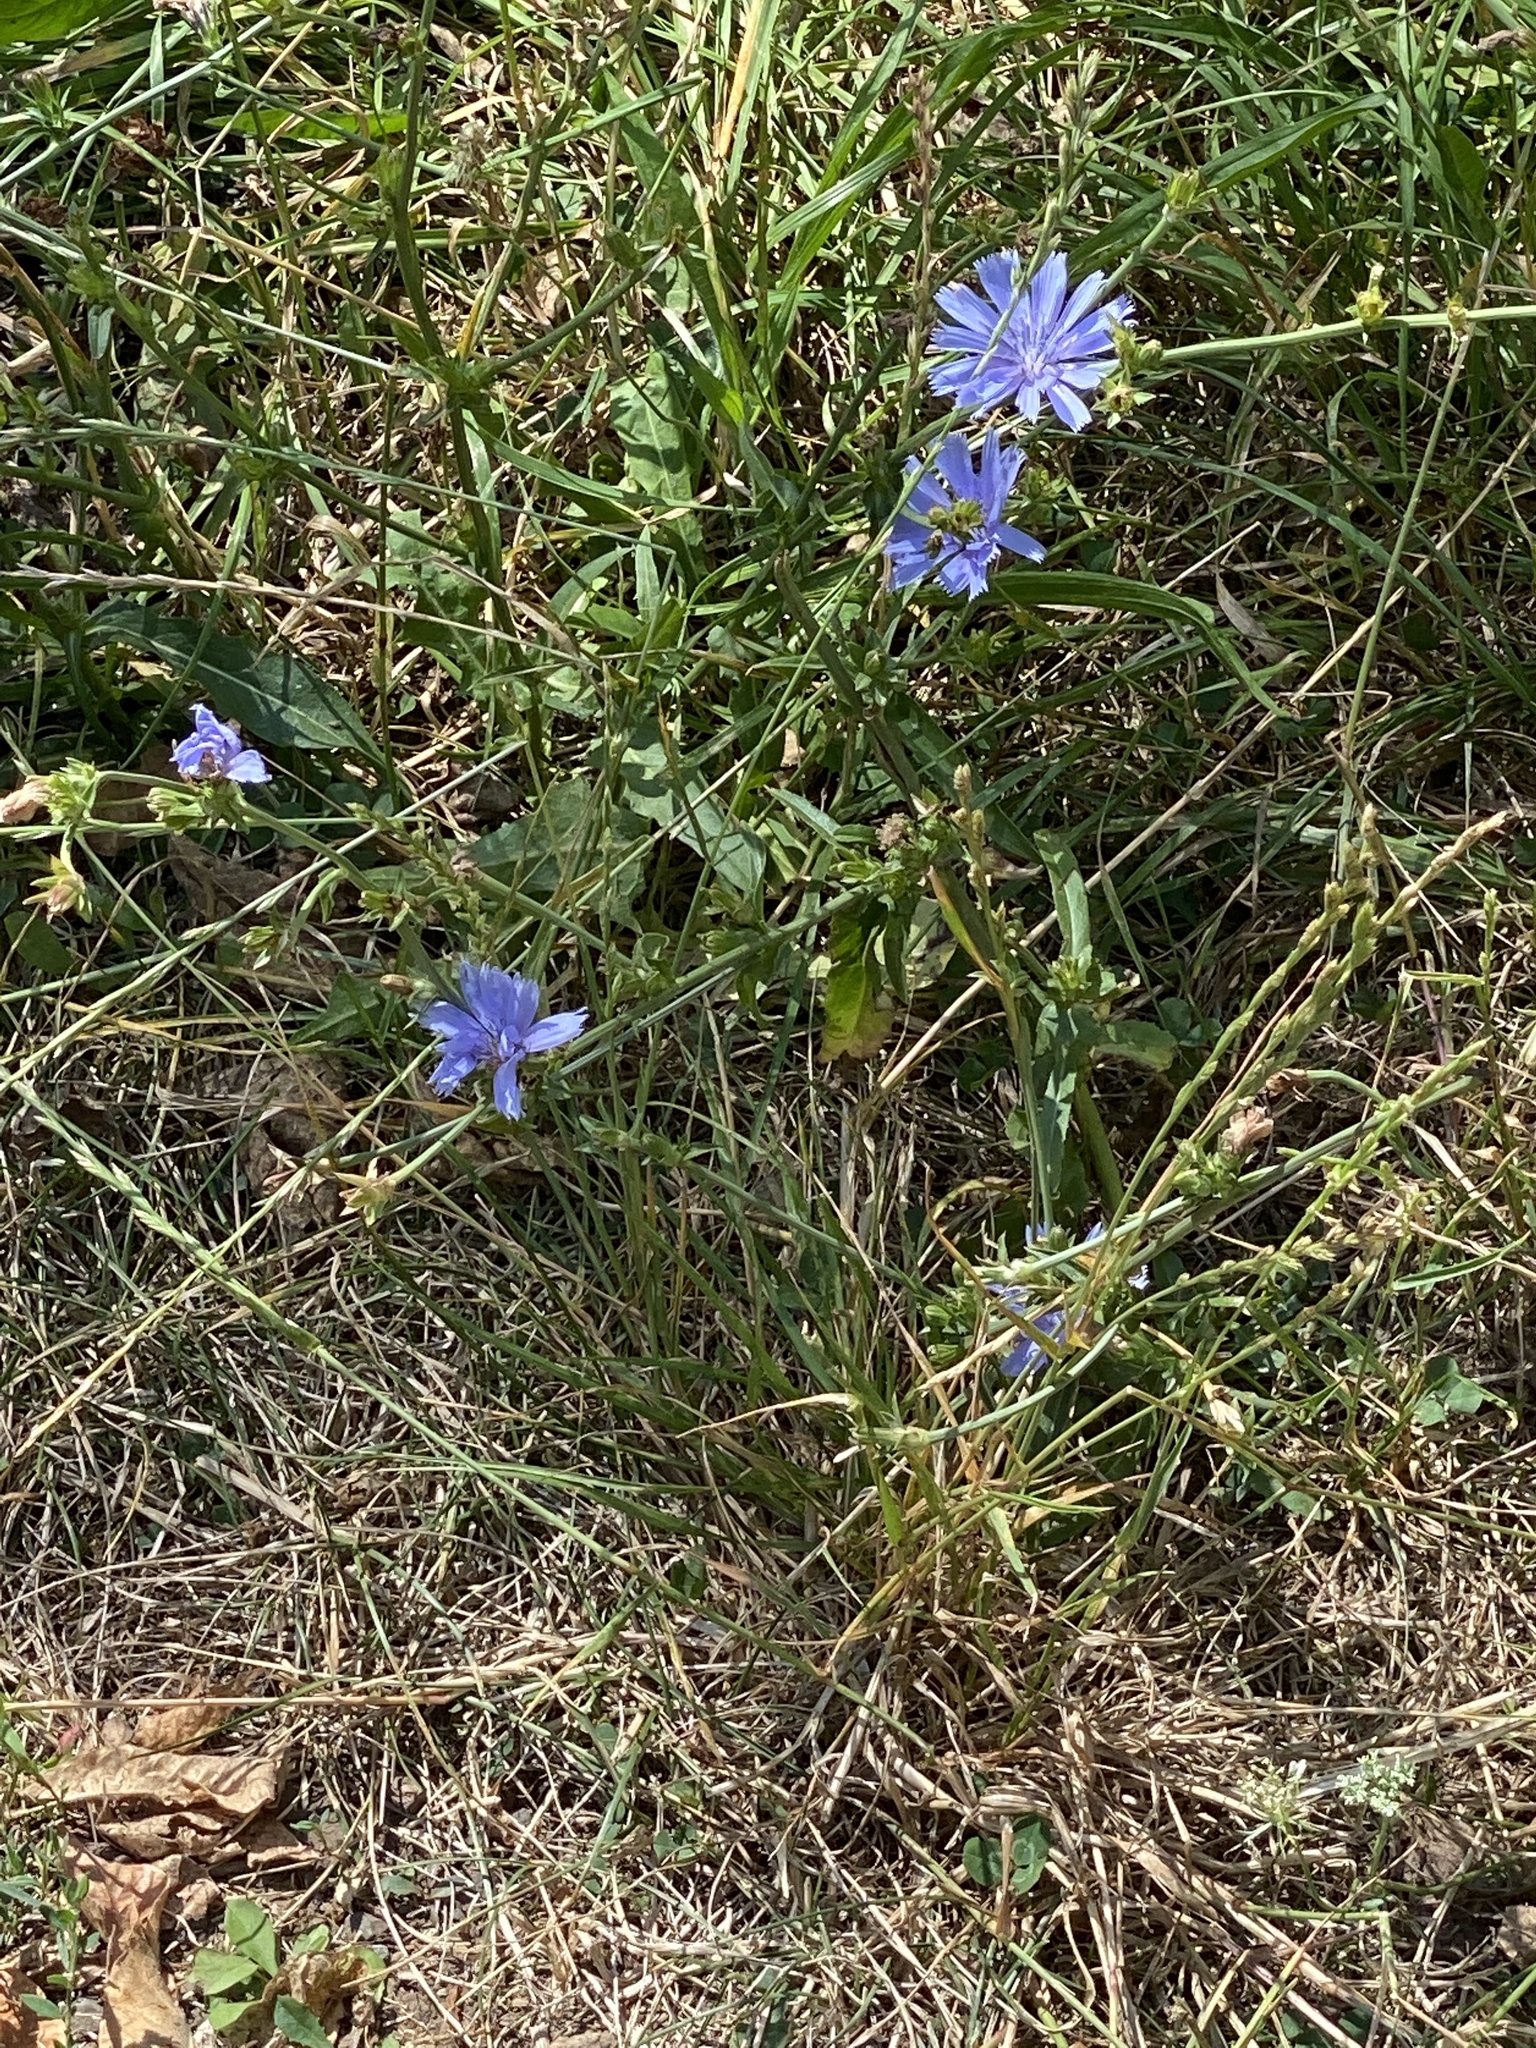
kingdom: Plantae
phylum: Tracheophyta
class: Magnoliopsida
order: Asterales
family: Asteraceae
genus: Cichorium
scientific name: Cichorium intybus
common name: Chicory
